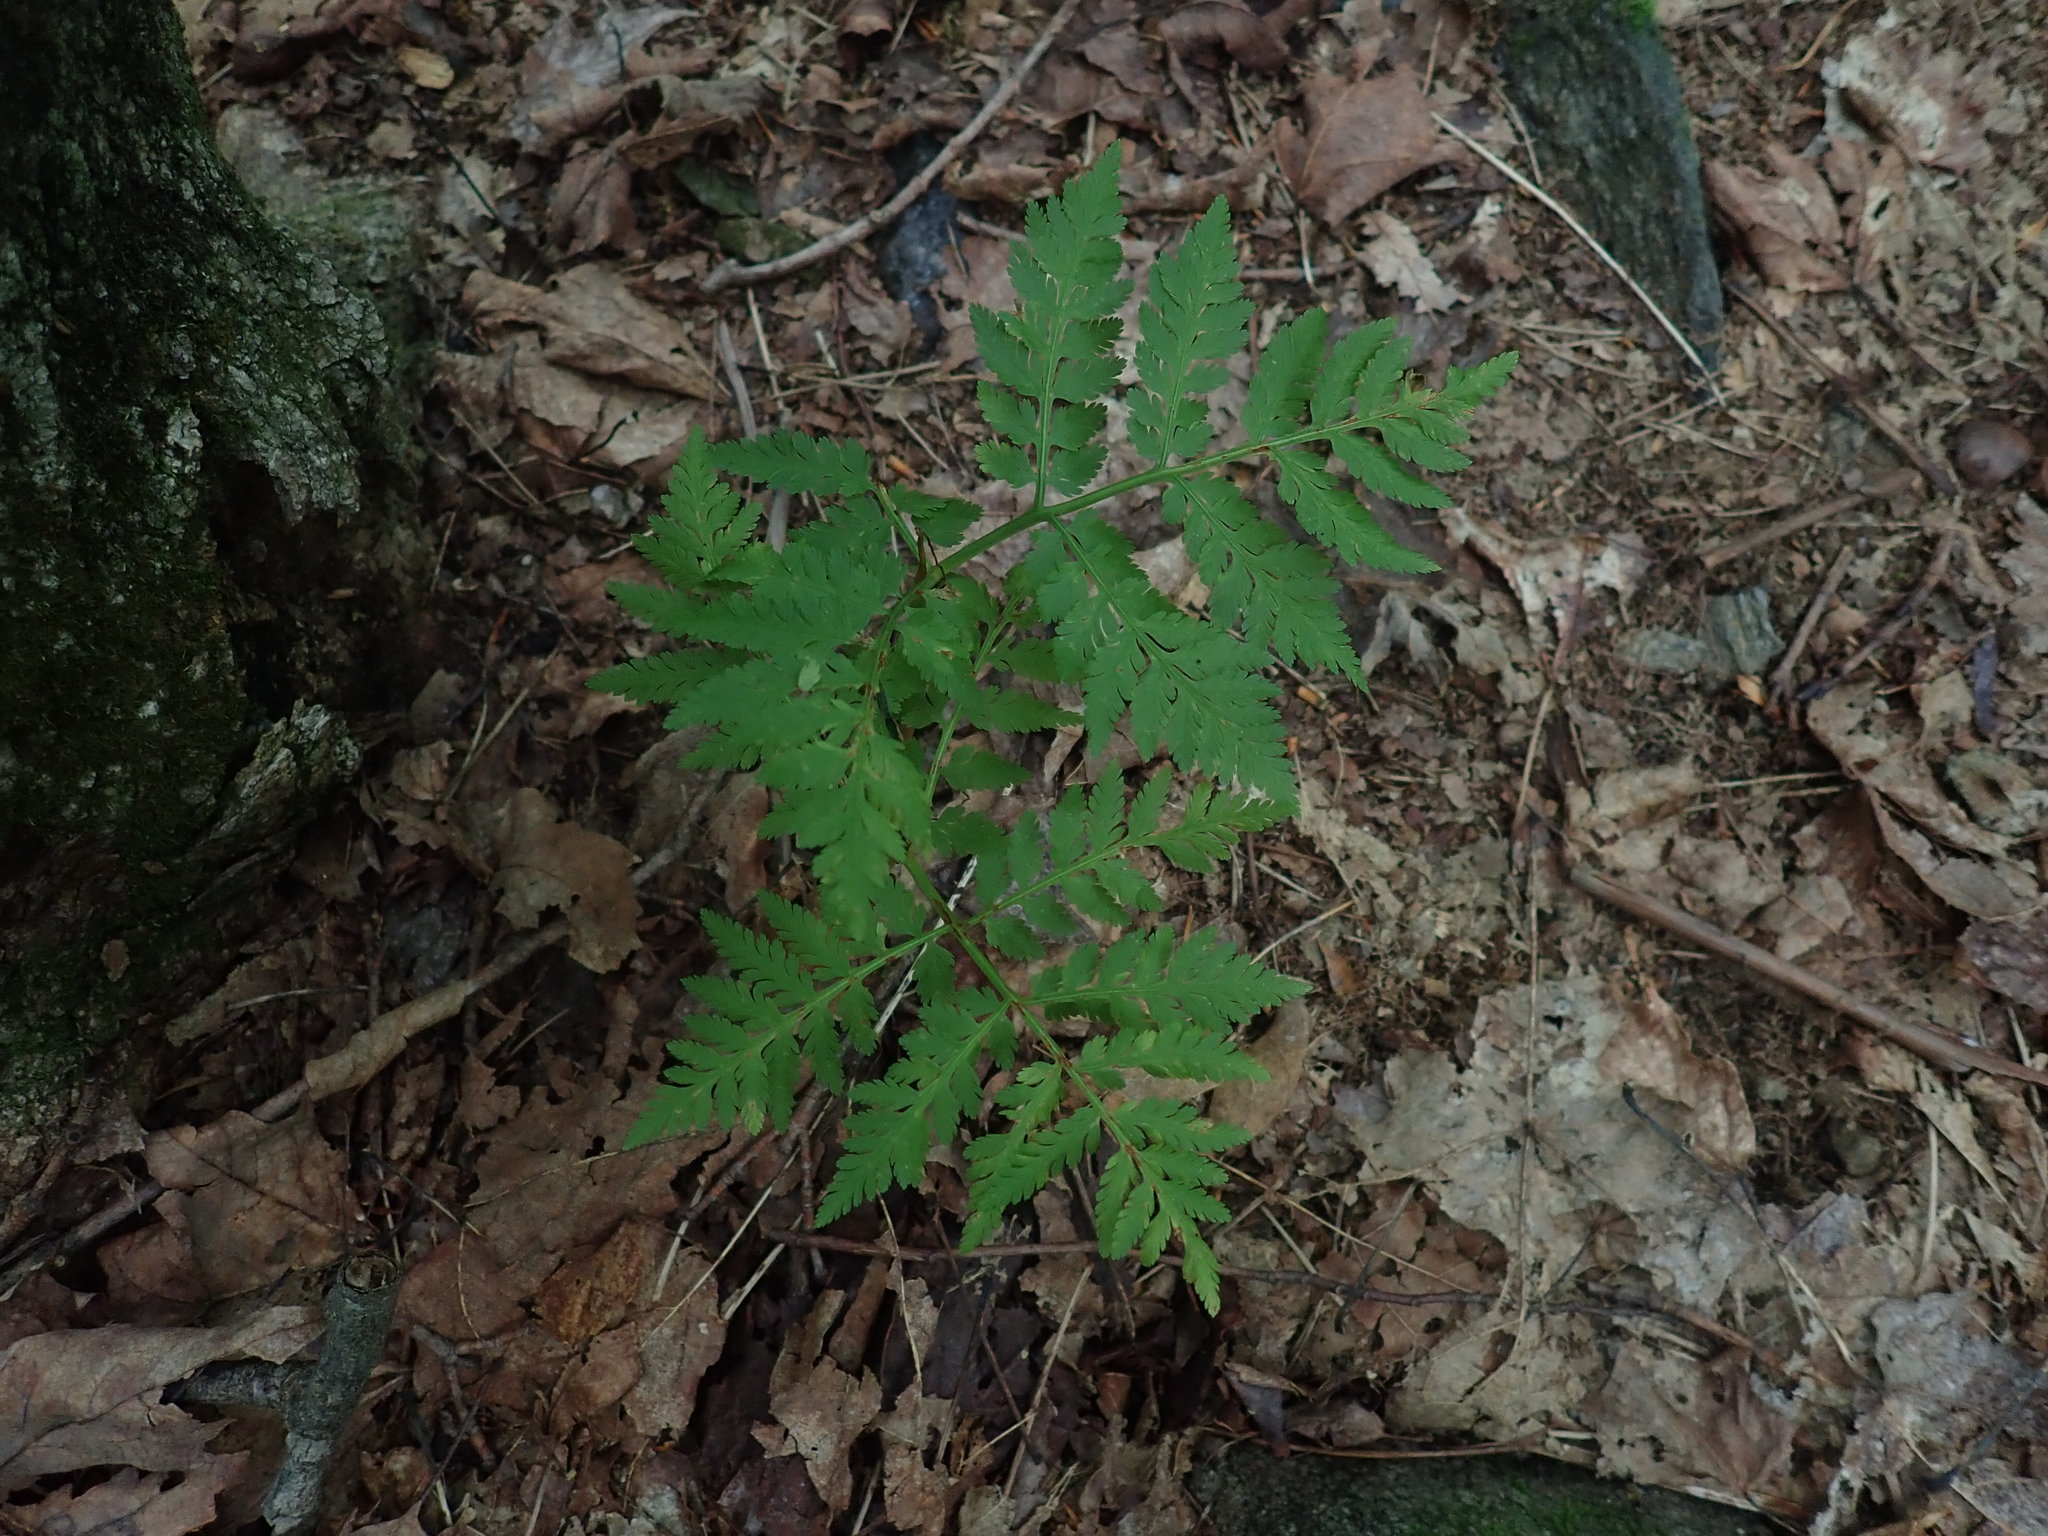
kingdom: Plantae
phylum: Tracheophyta
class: Polypodiopsida
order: Ophioglossales
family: Ophioglossaceae
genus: Botrypus
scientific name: Botrypus virginianus
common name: Common grapefern
